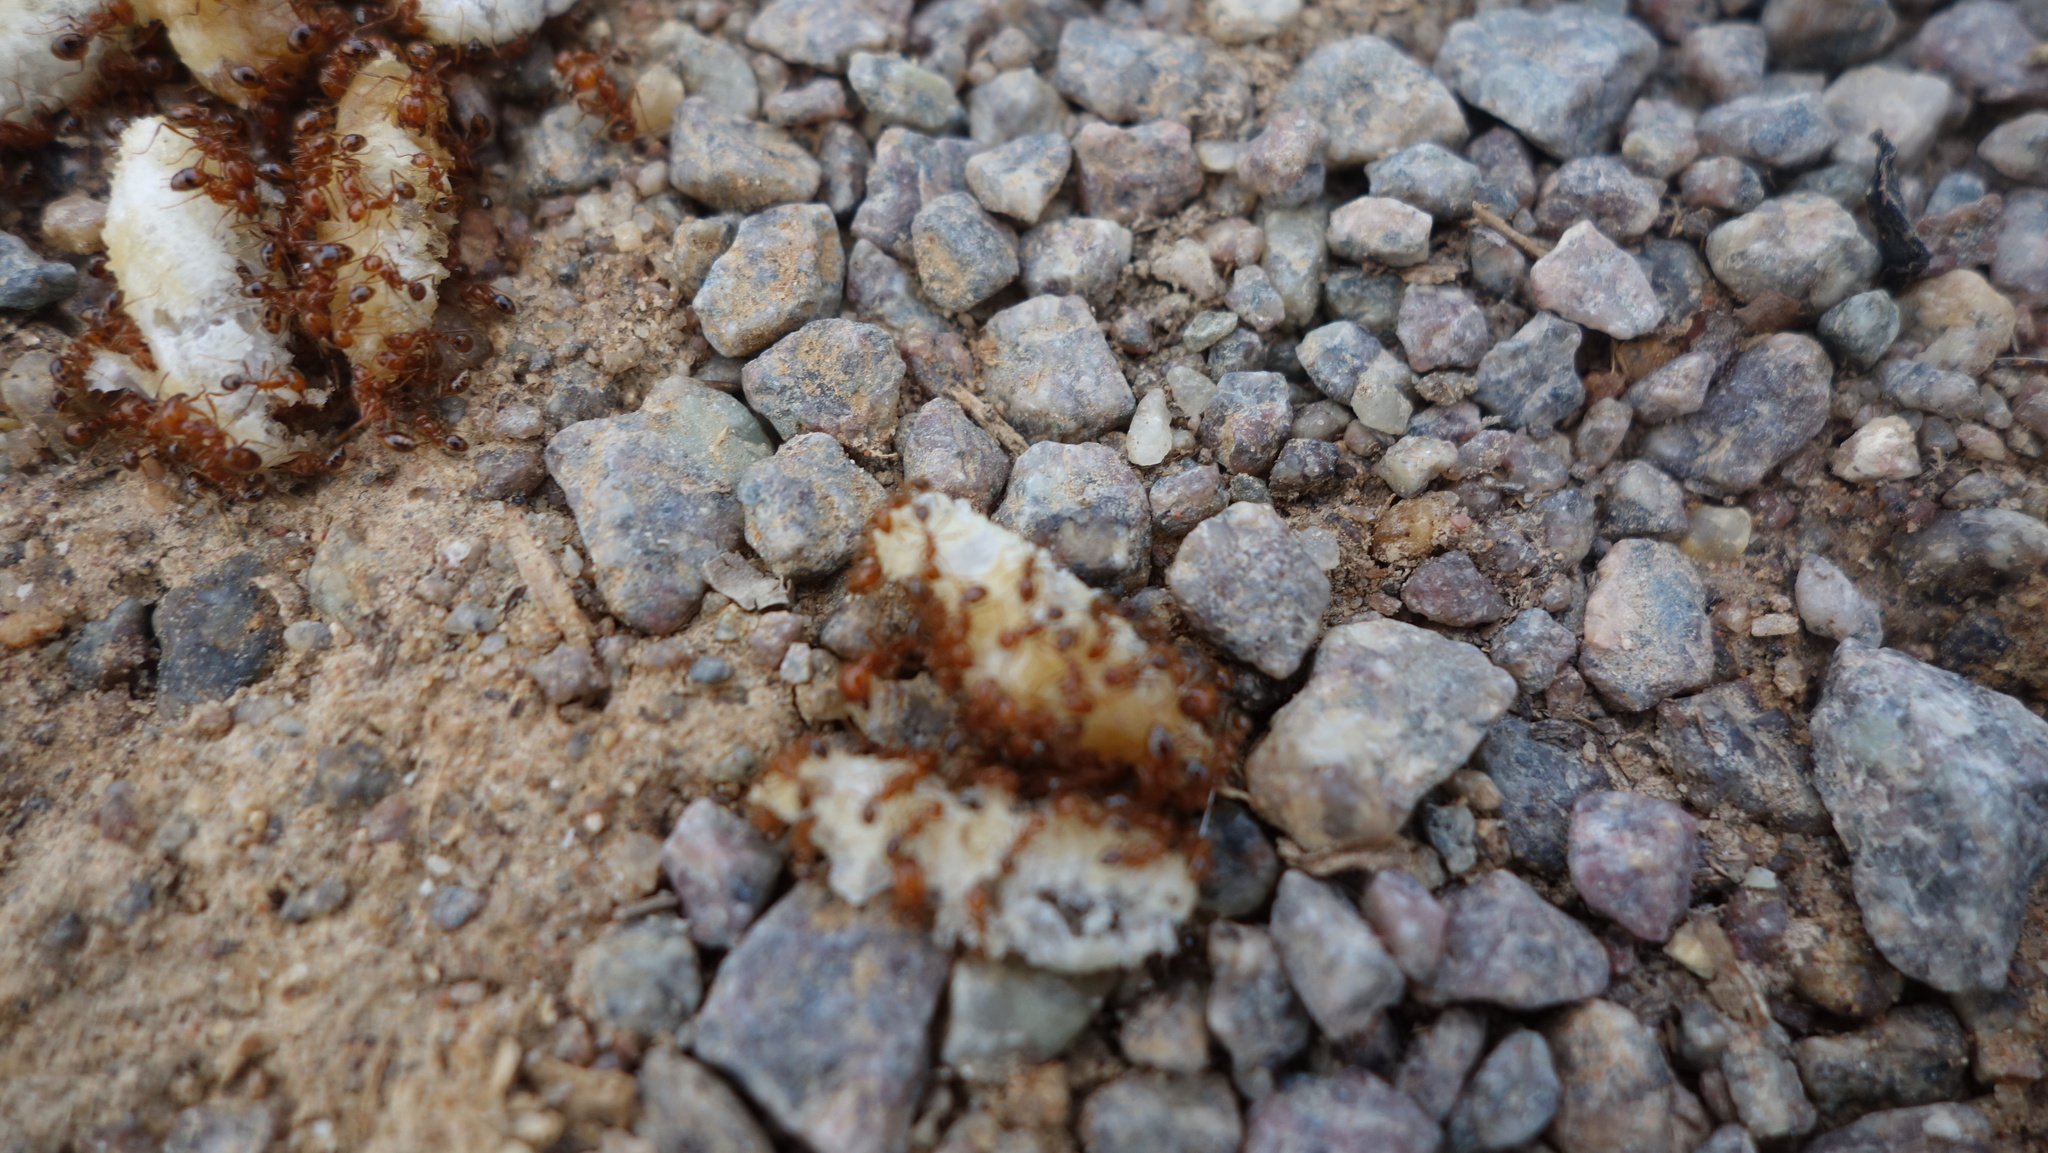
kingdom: Animalia
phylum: Arthropoda
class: Insecta
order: Hymenoptera
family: Formicidae
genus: Solenopsis
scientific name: Solenopsis geminata
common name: Tropical fire ant
